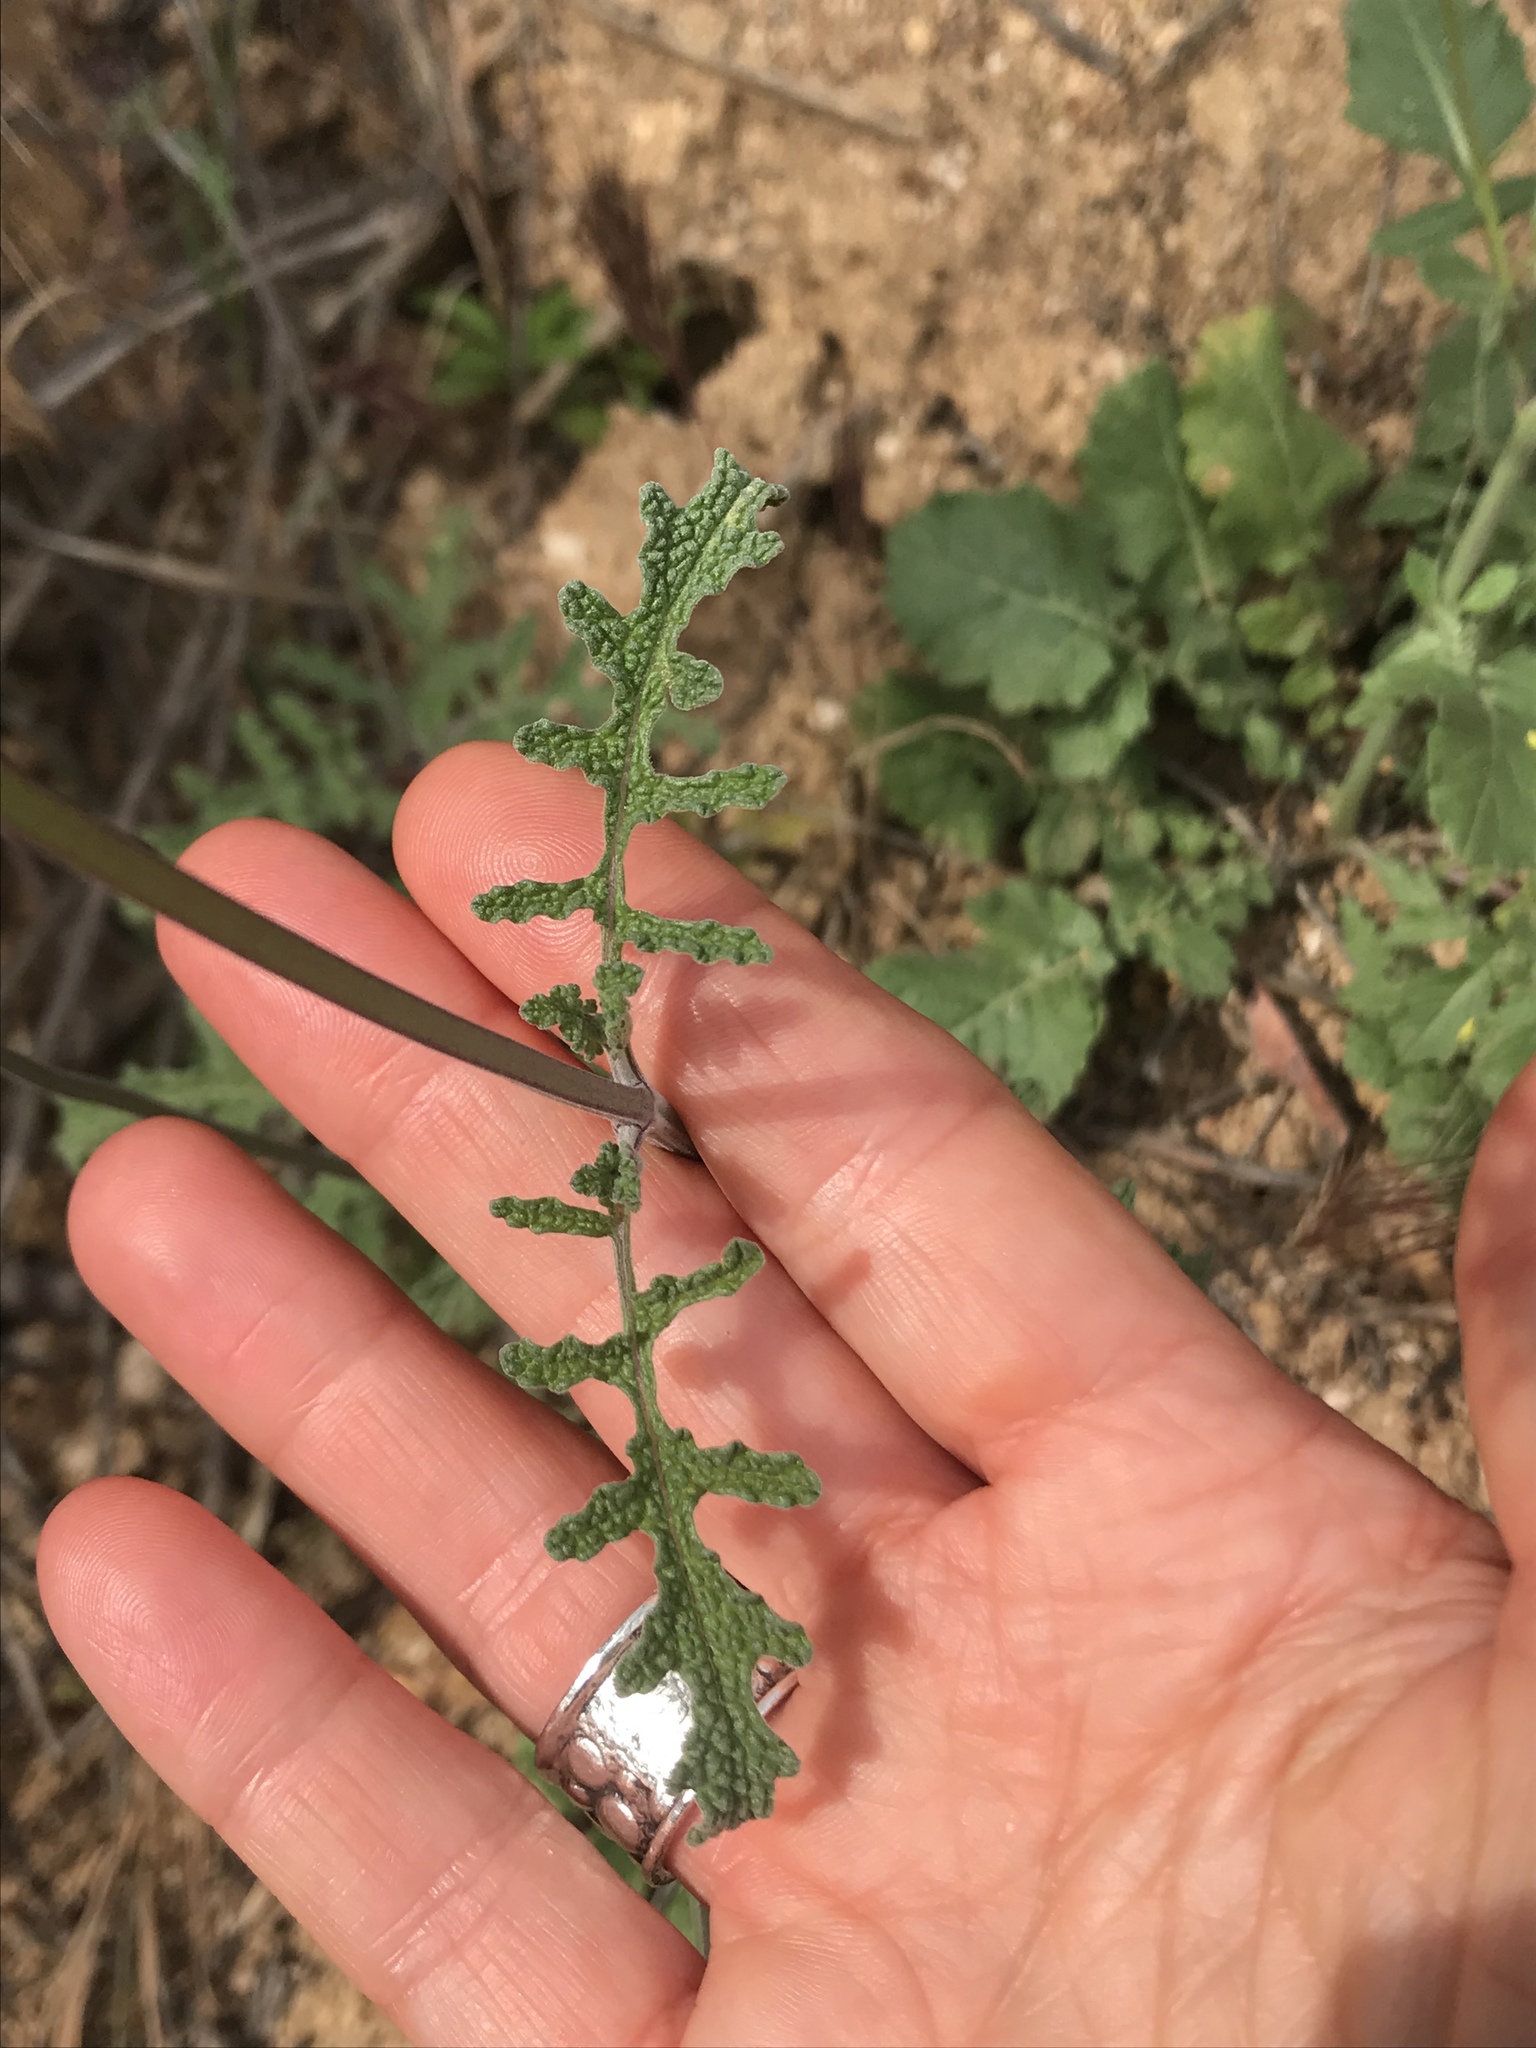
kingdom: Plantae
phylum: Tracheophyta
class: Magnoliopsida
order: Lamiales
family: Lamiaceae
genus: Salvia
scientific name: Salvia columbariae
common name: Chia
